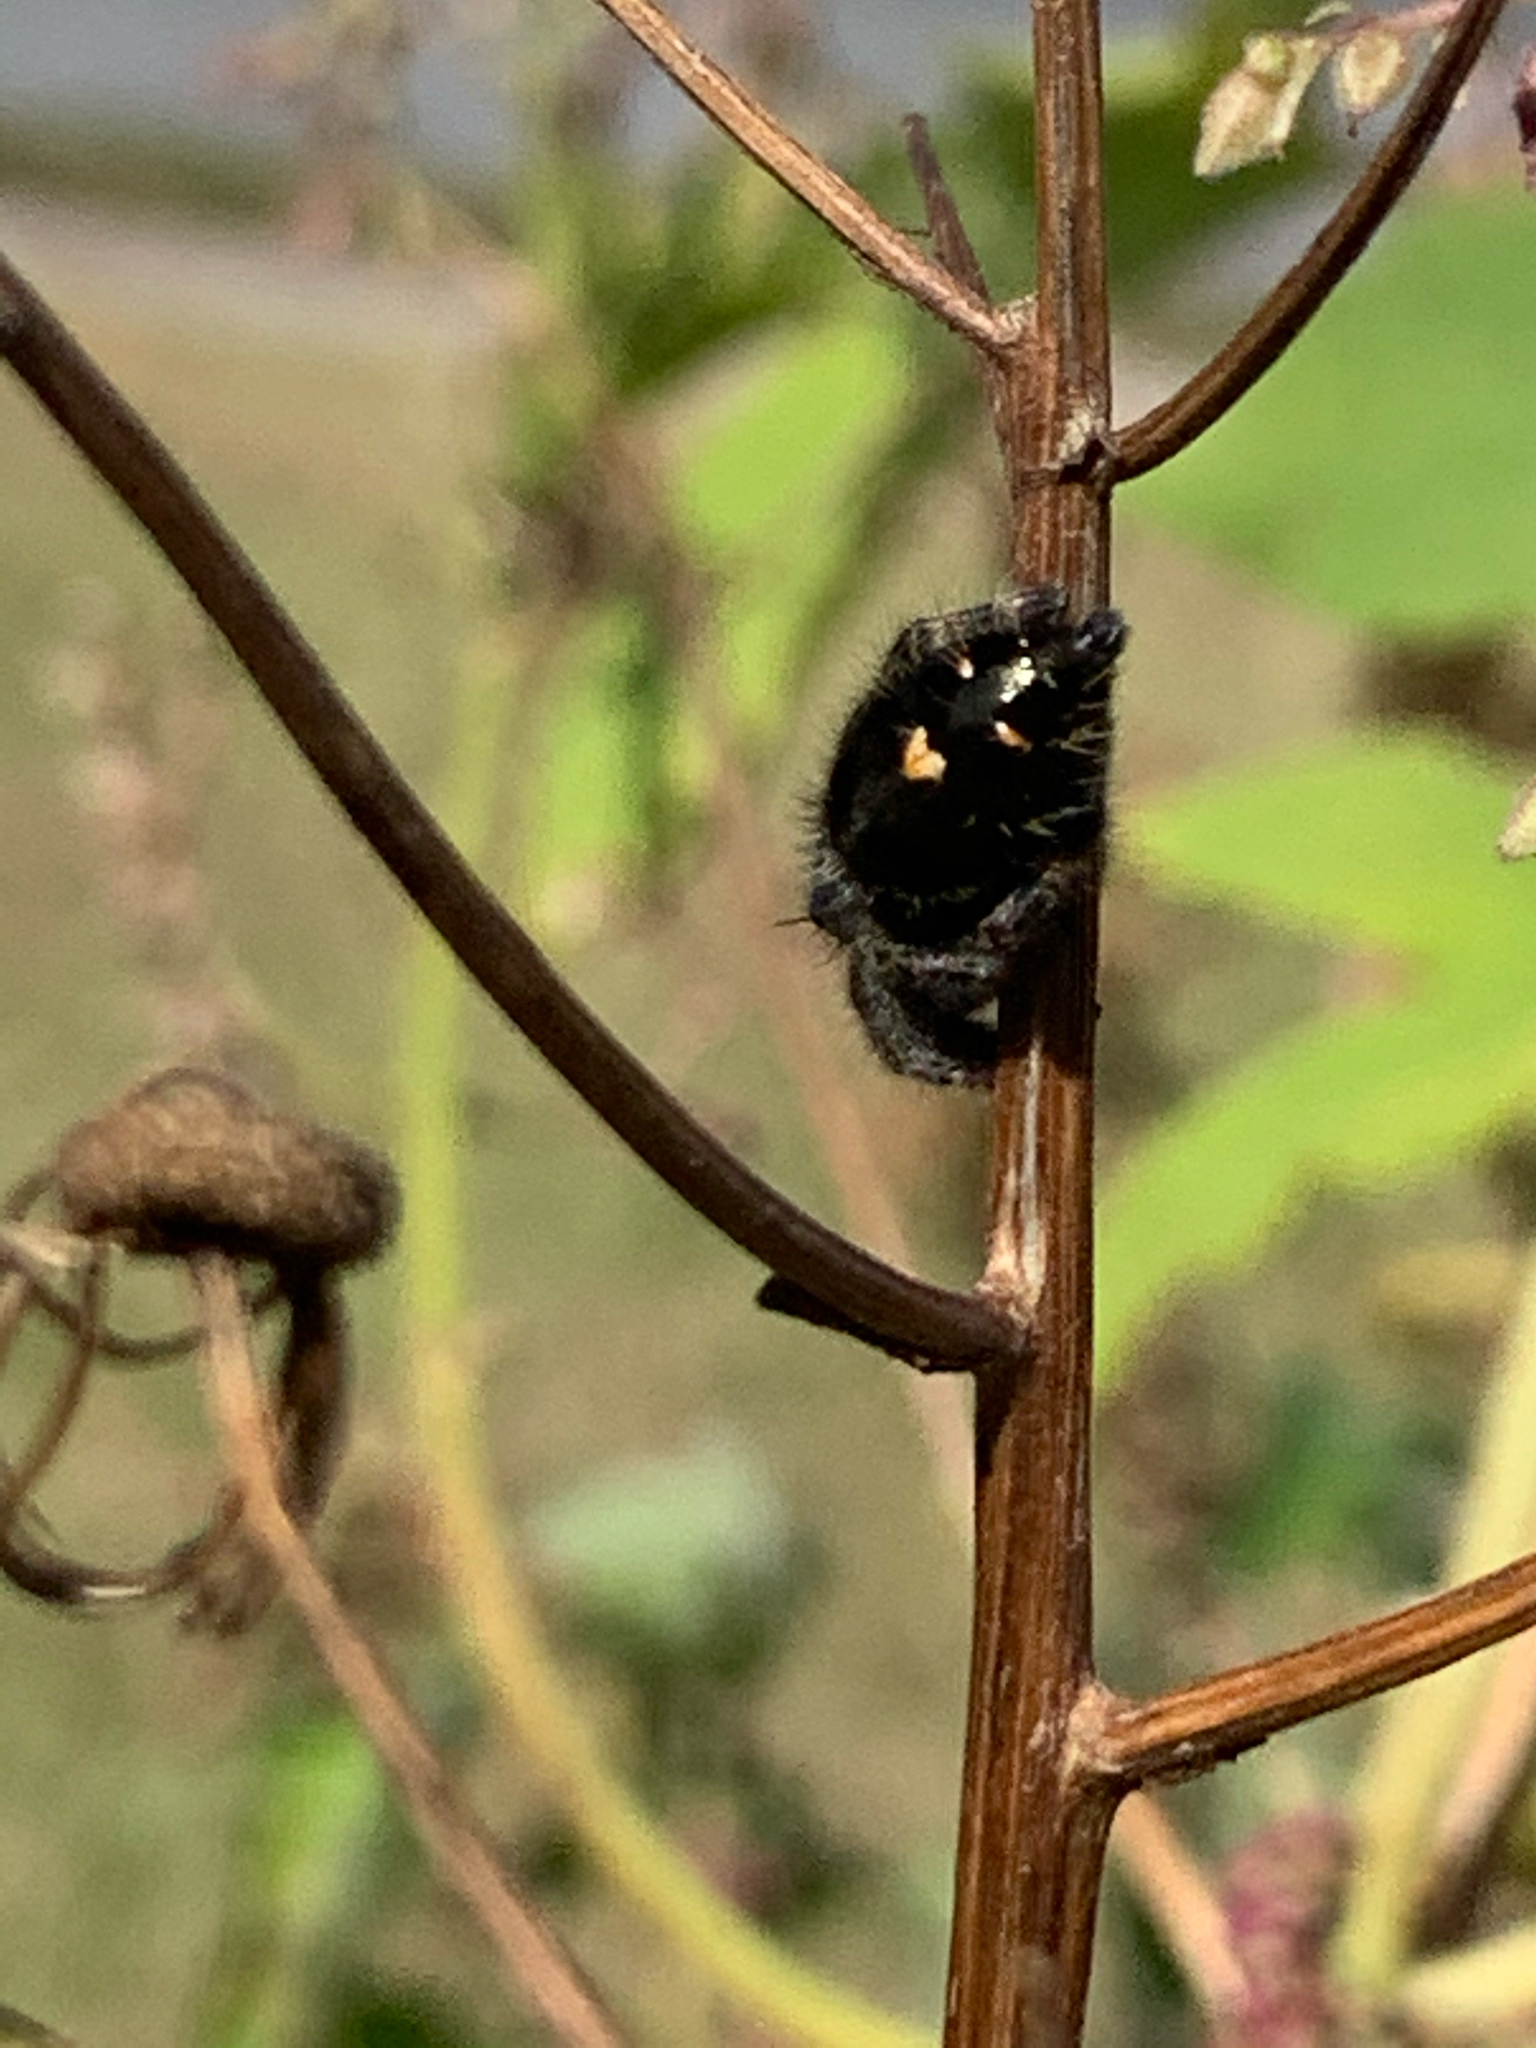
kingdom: Animalia
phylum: Arthropoda
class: Arachnida
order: Araneae
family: Salticidae
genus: Phidippus
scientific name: Phidippus audax
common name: Bold jumper
